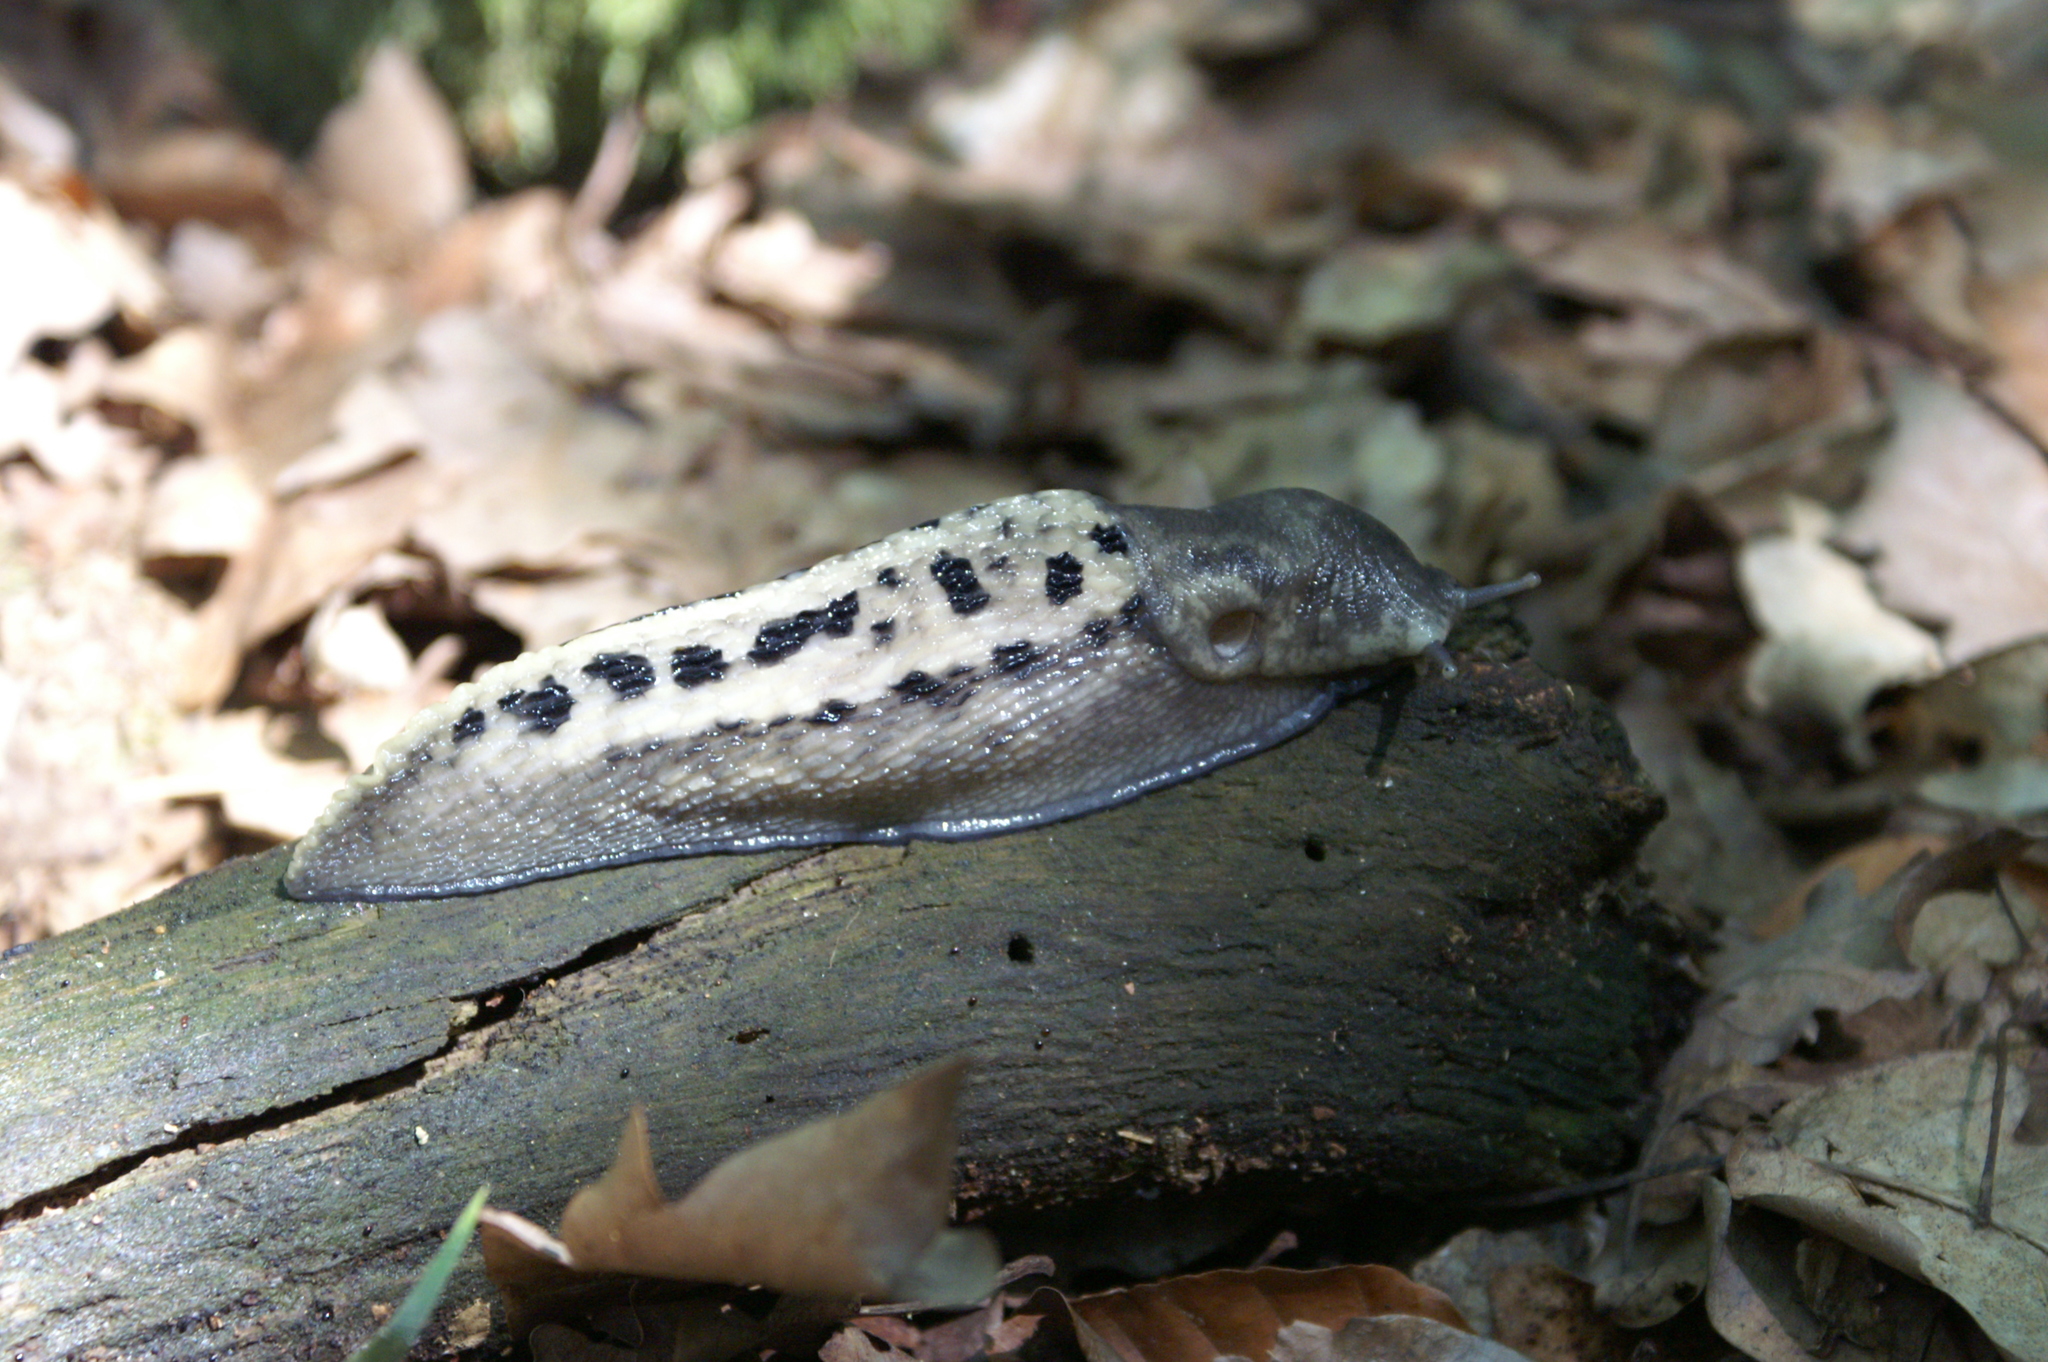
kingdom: Animalia
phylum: Mollusca
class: Gastropoda
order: Stylommatophora
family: Limacidae
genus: Limax
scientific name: Limax cinereoniger
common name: Ash-black slug
